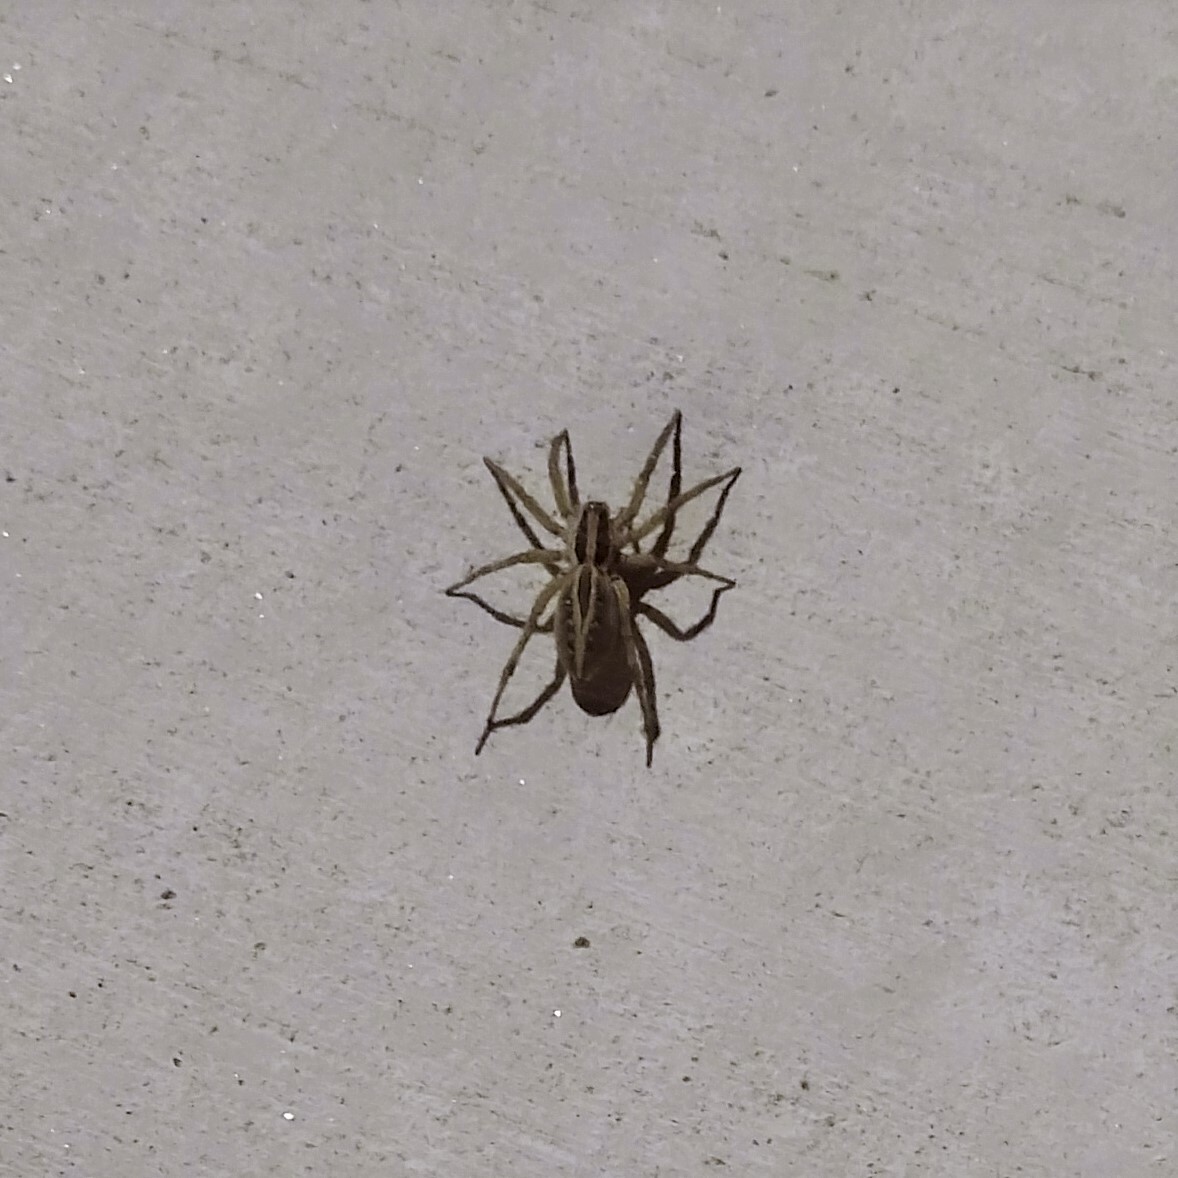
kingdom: Animalia
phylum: Arthropoda
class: Arachnida
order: Araneae
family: Lycosidae
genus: Schizocosa
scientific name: Schizocosa mccooki
